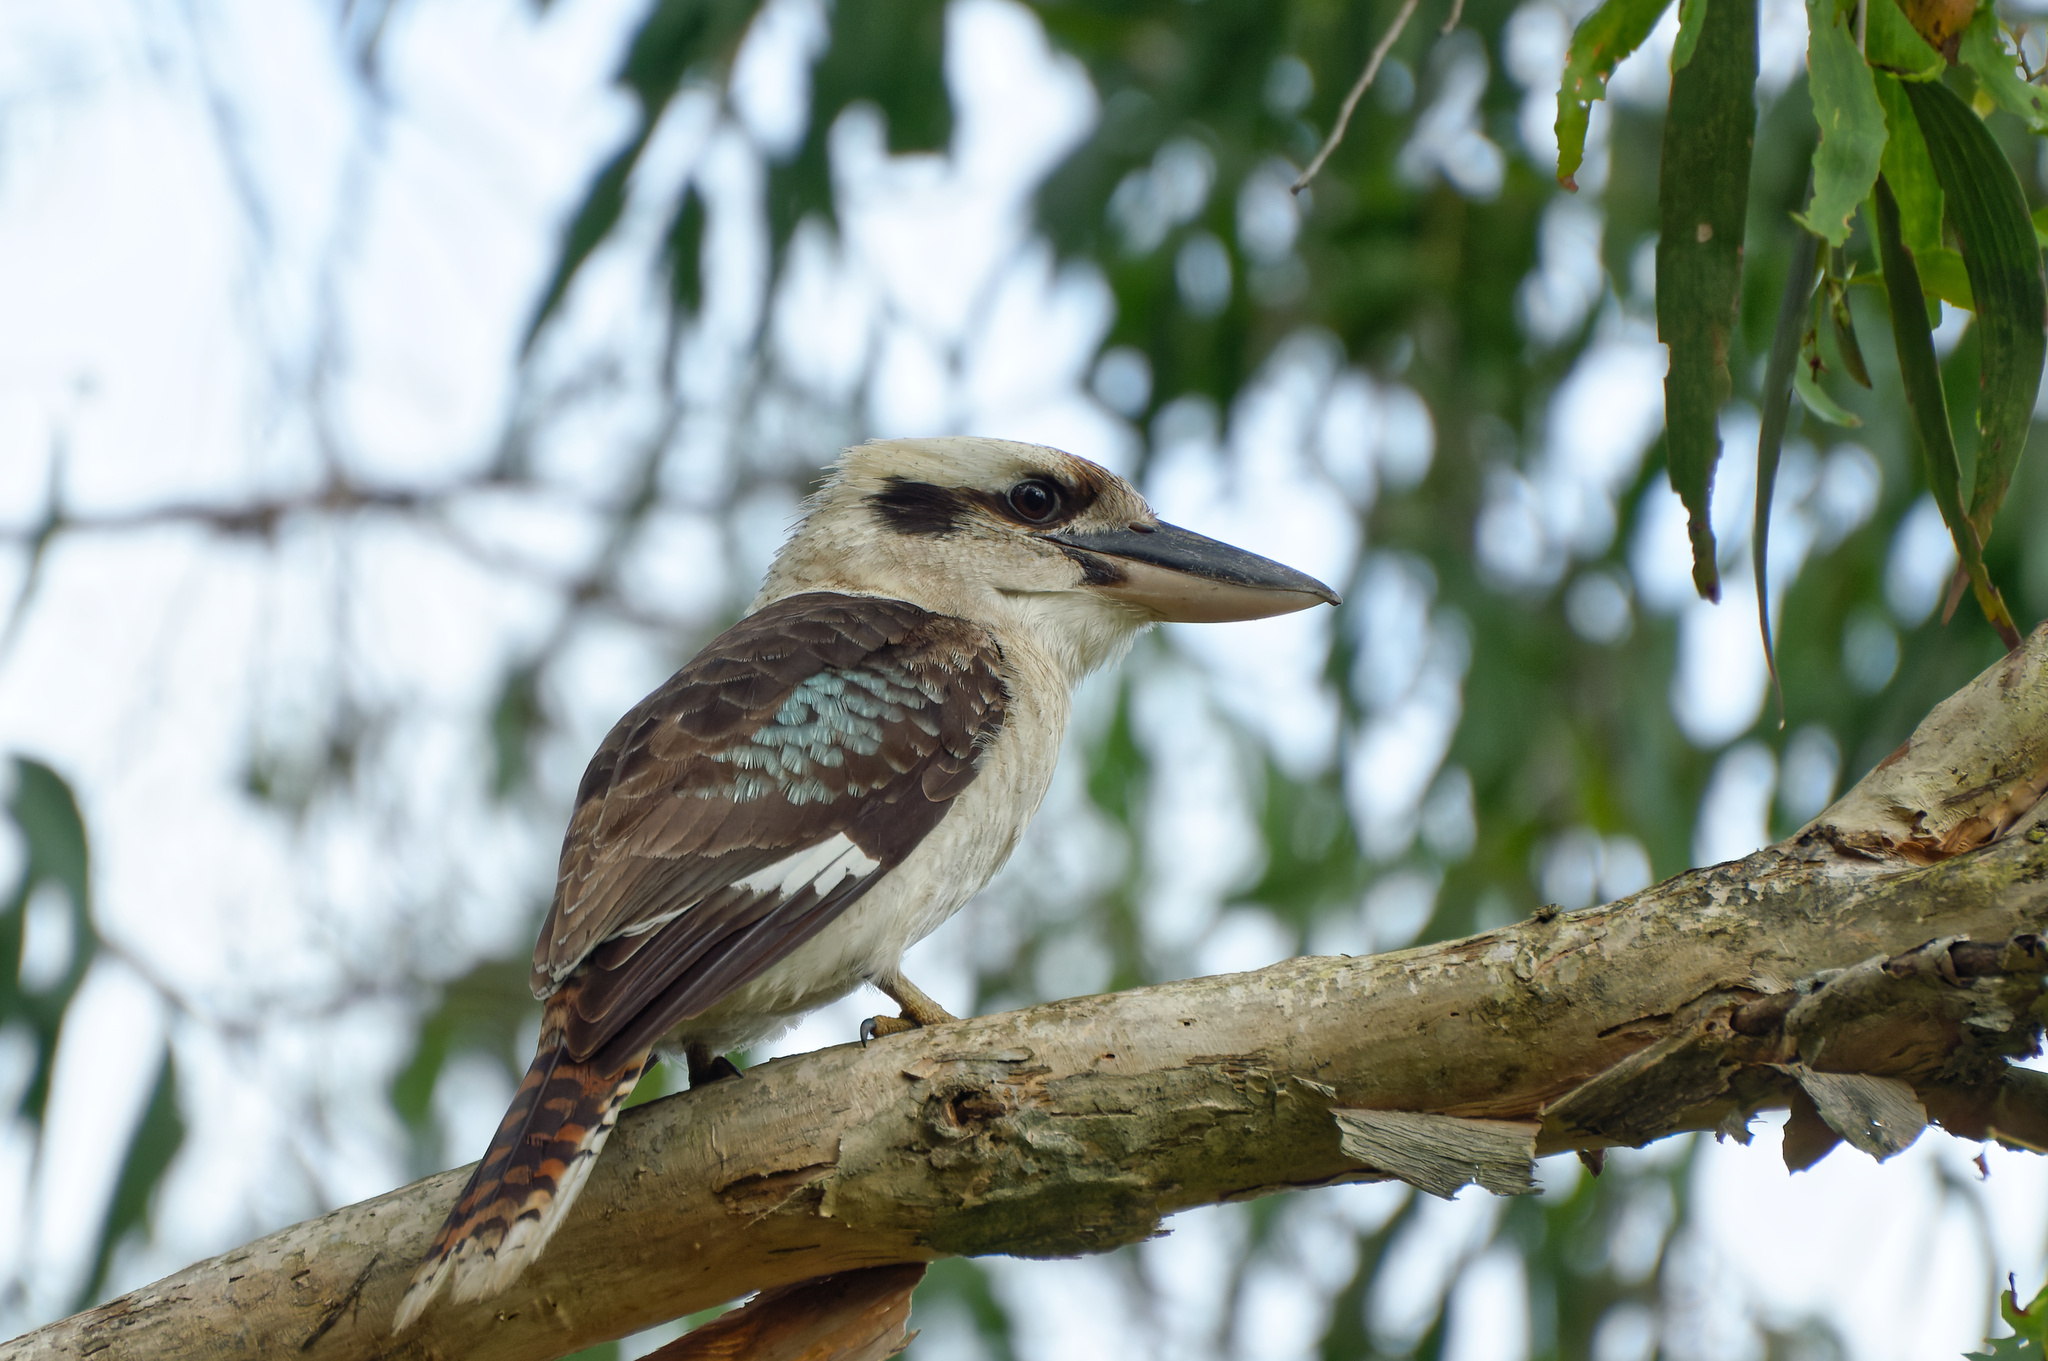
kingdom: Animalia
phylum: Chordata
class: Aves
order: Coraciiformes
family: Alcedinidae
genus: Dacelo
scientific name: Dacelo novaeguineae
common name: Laughing kookaburra
